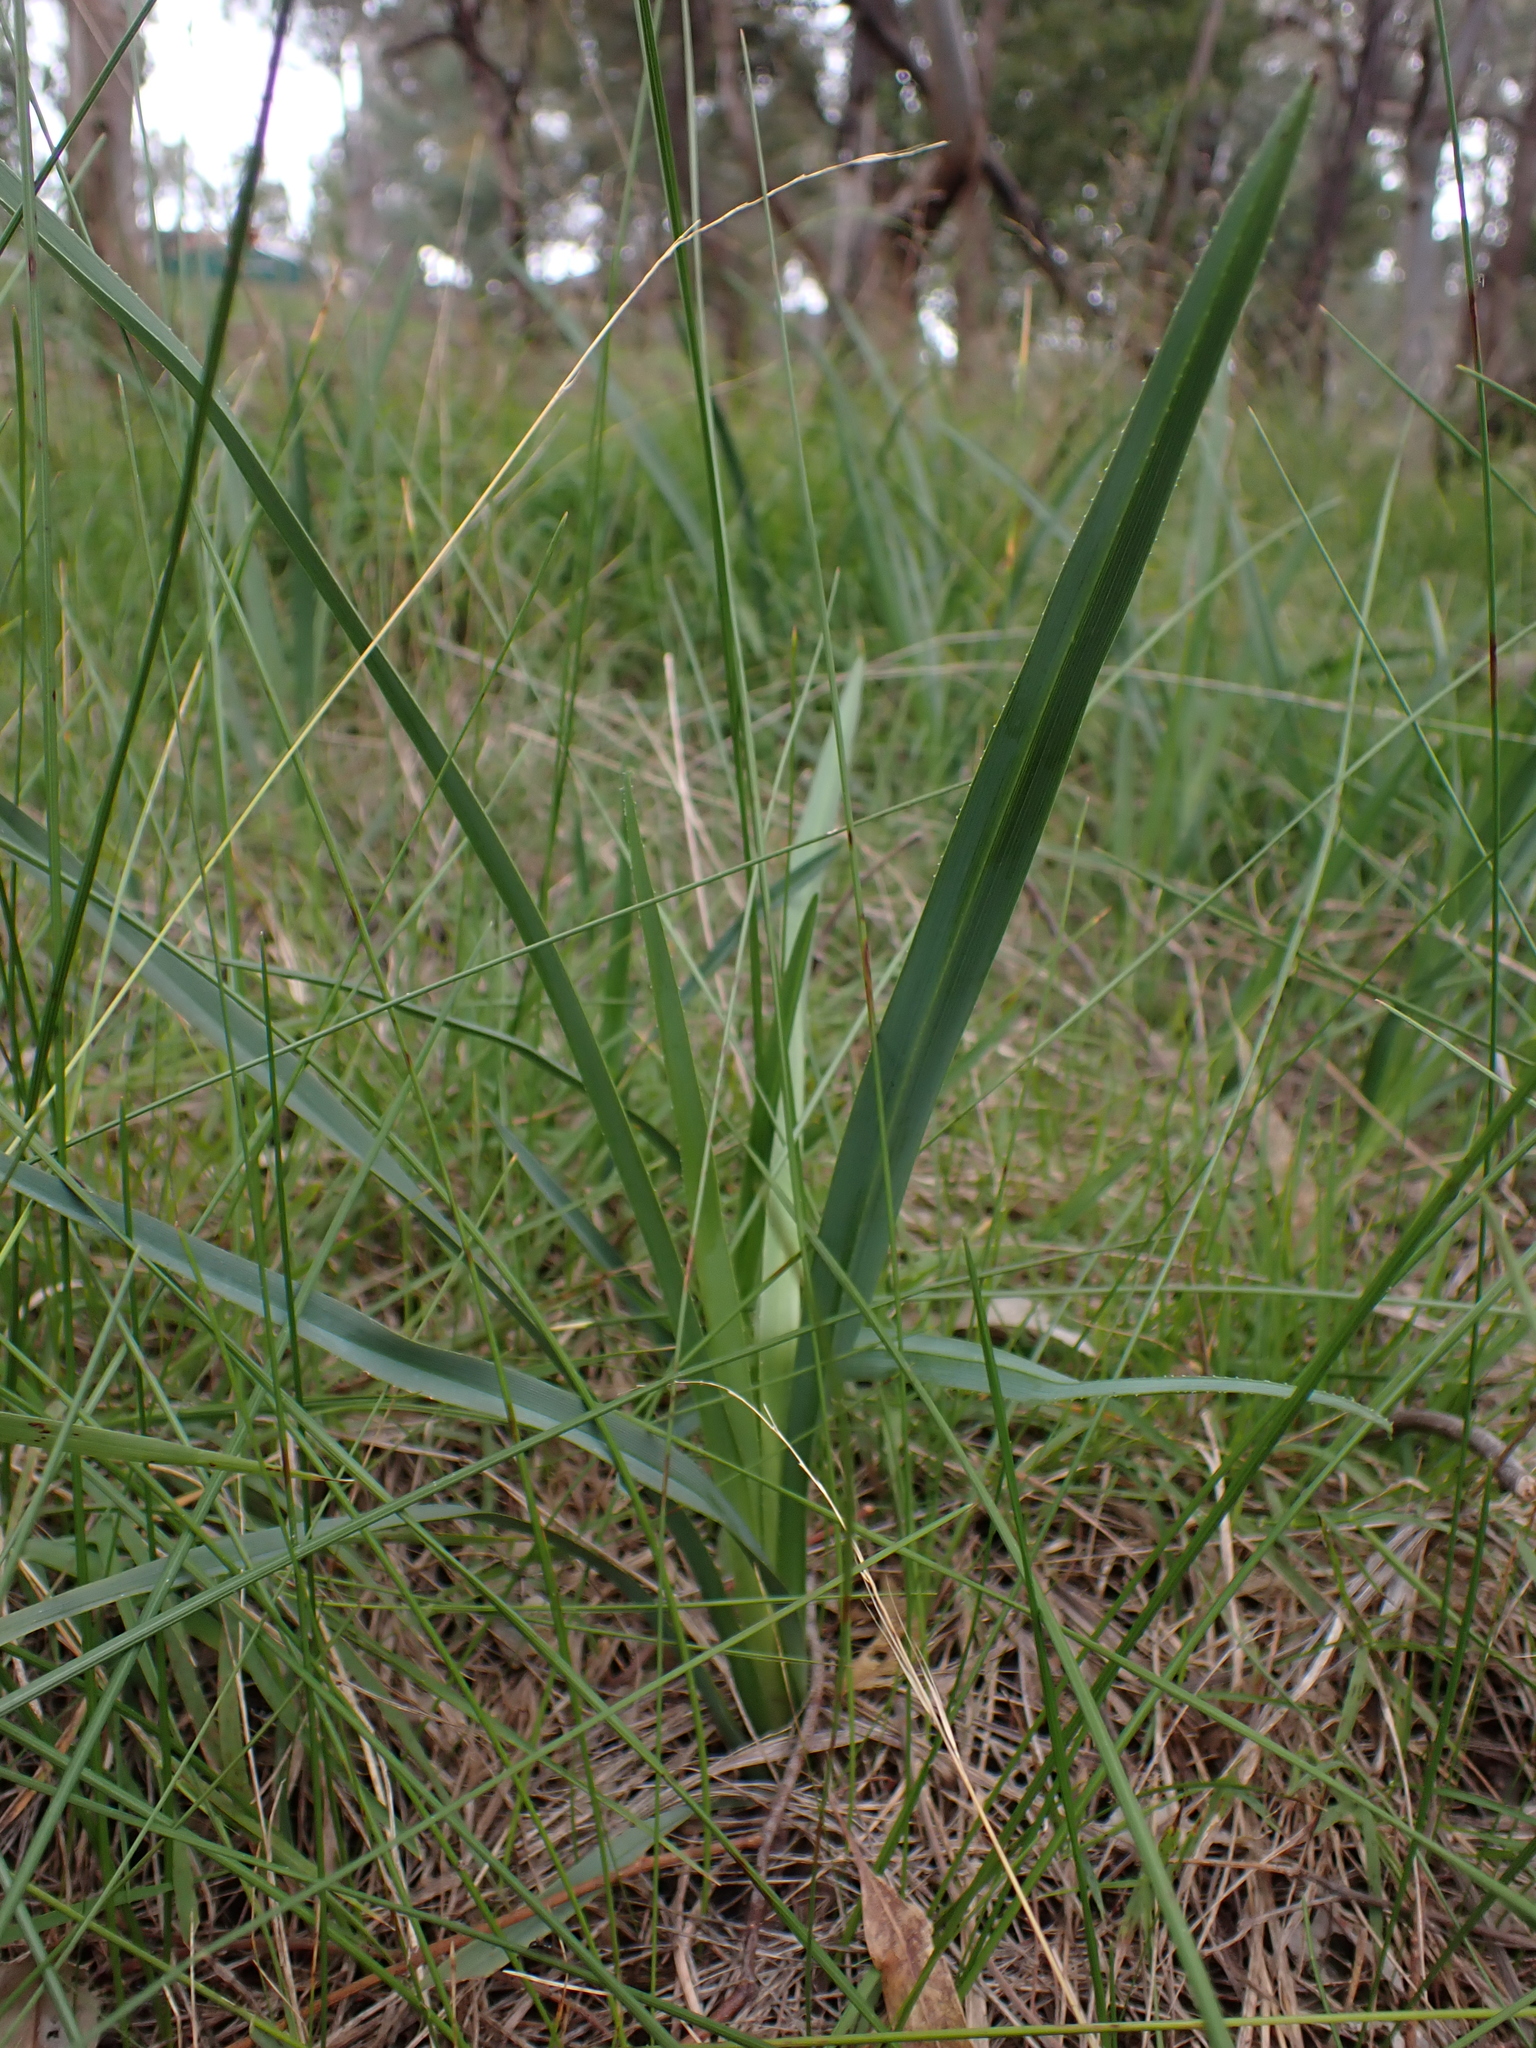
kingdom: Plantae
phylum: Tracheophyta
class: Liliopsida
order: Asparagales
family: Asphodelaceae
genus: Dianella
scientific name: Dianella amoena
